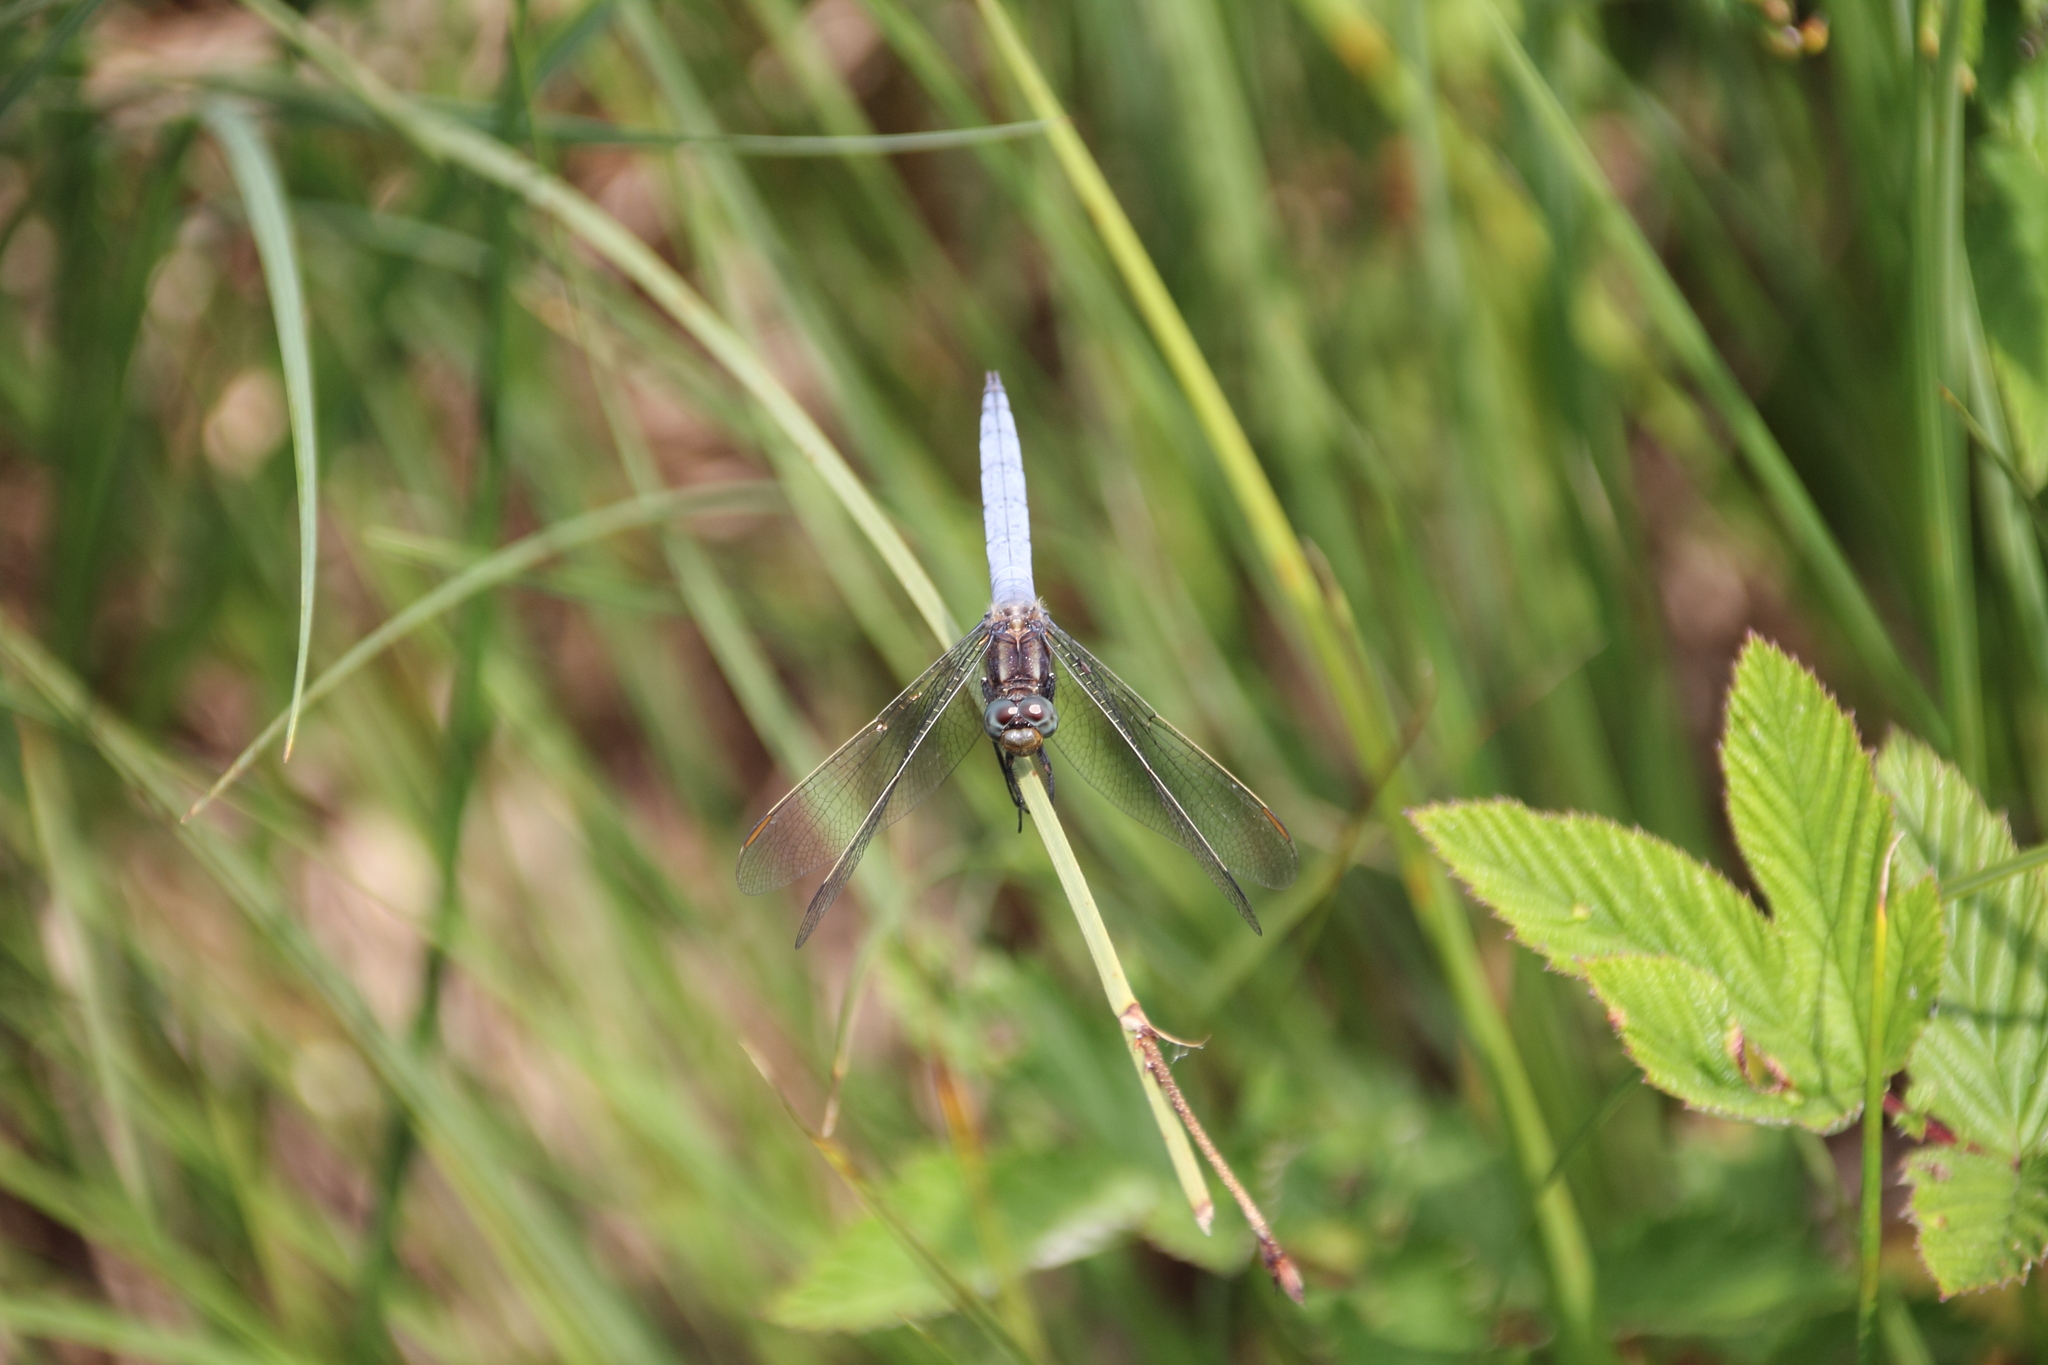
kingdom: Animalia
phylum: Arthropoda
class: Insecta
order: Odonata
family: Libellulidae
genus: Orthetrum
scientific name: Orthetrum coerulescens
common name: Keeled skimmer
